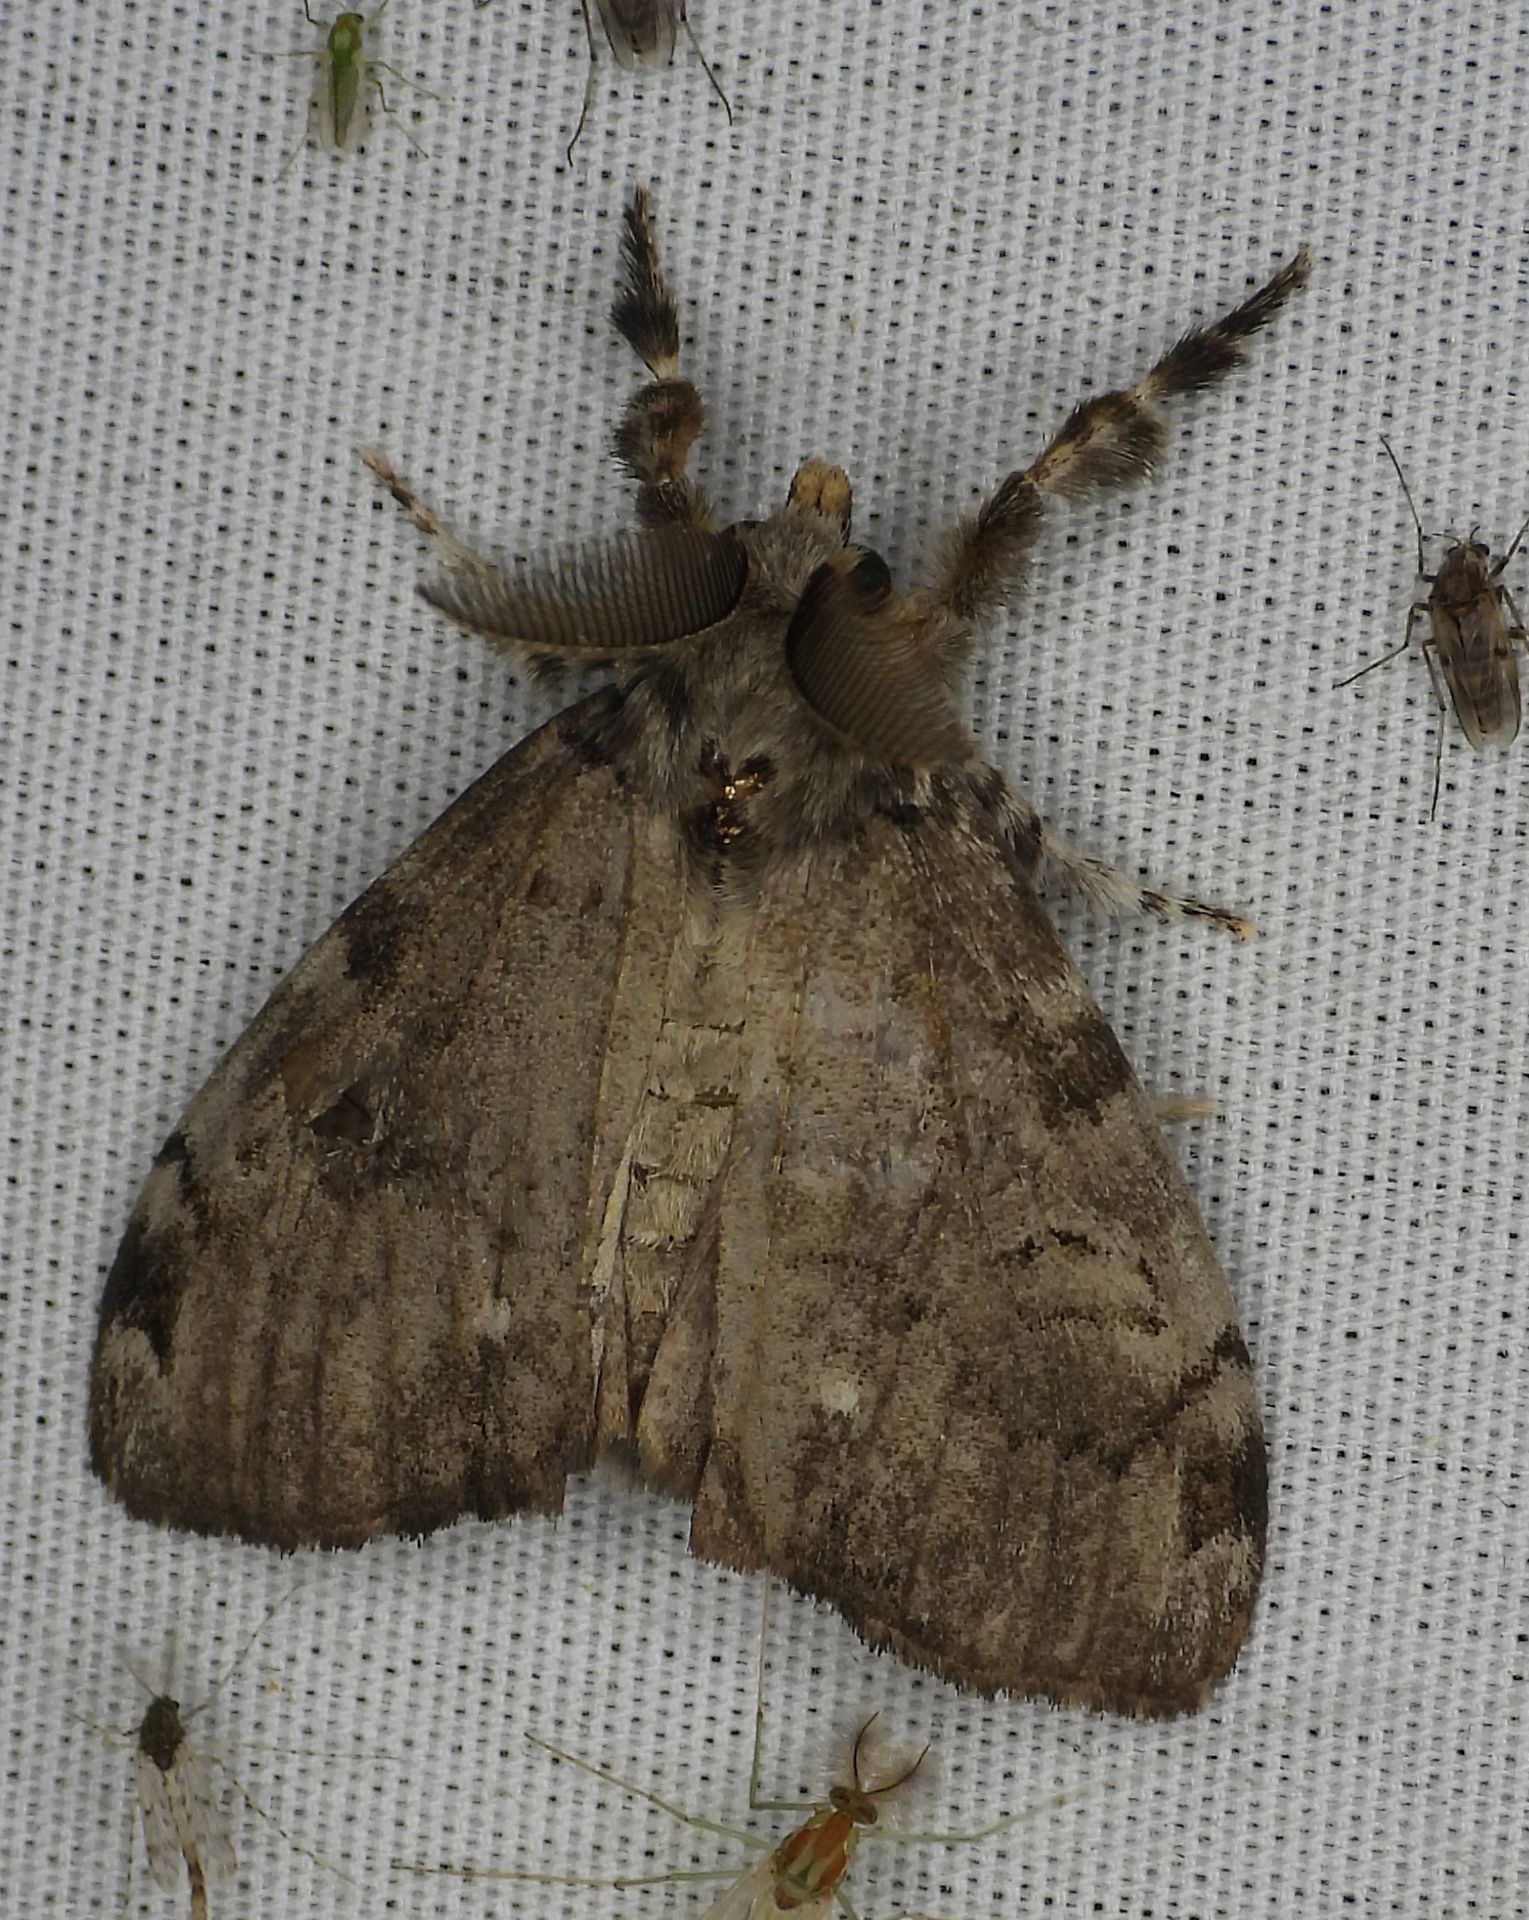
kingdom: Animalia
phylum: Arthropoda
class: Insecta
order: Lepidoptera
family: Erebidae
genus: Orgyia
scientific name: Orgyia leucostigma
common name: White-marked tussock moth
